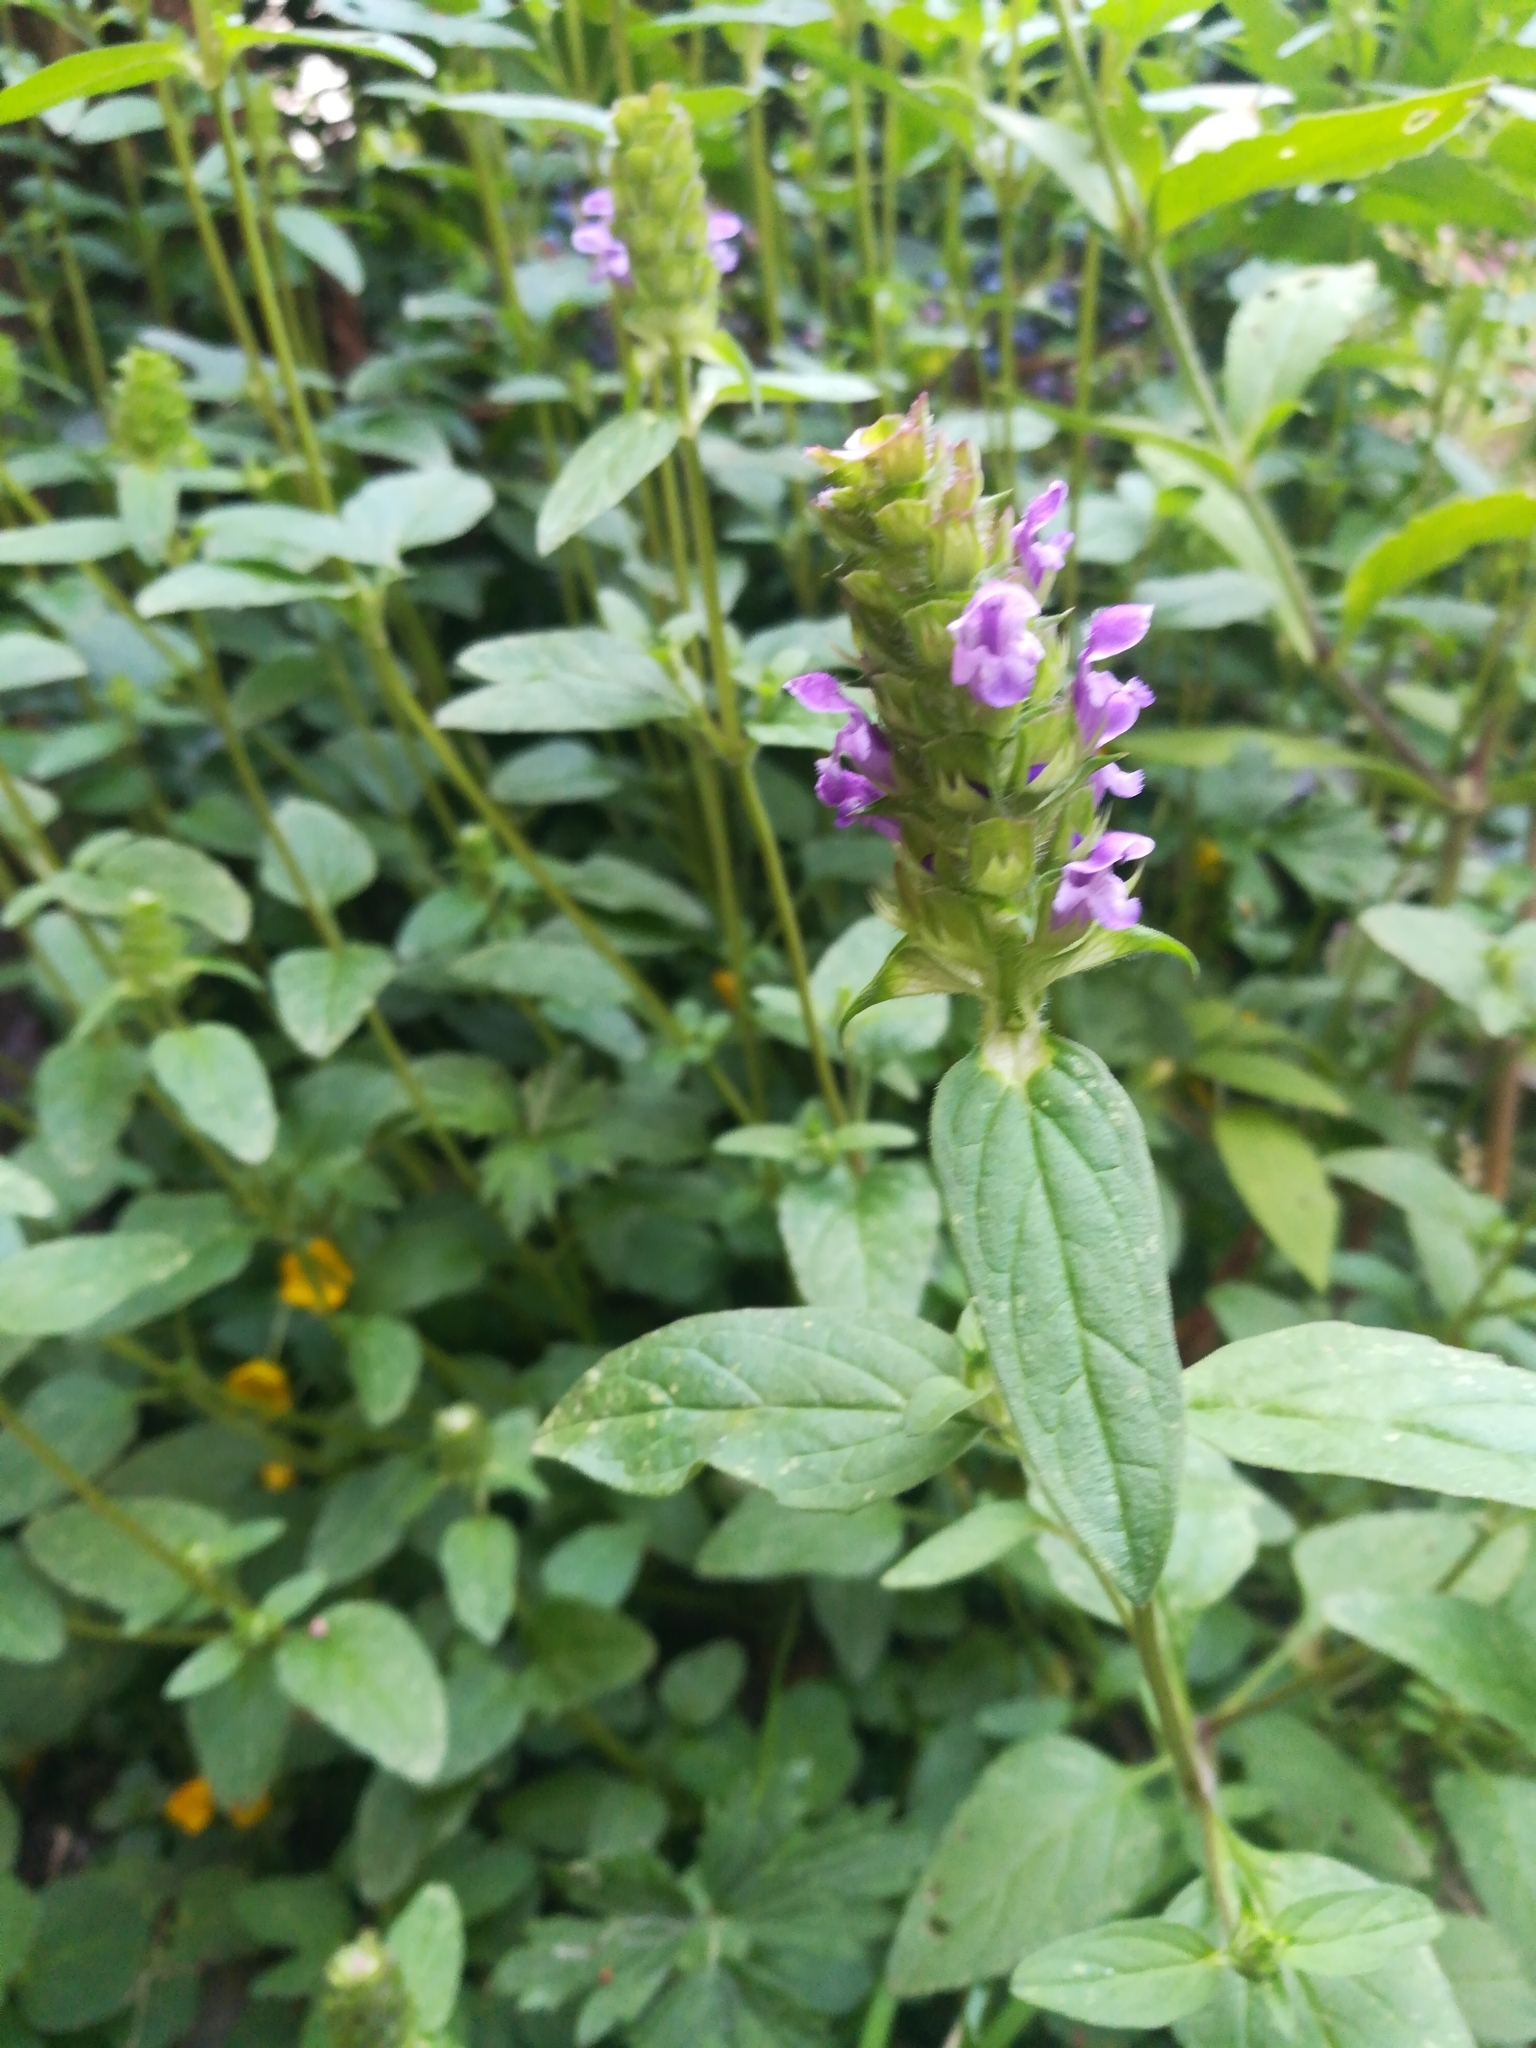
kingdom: Plantae
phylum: Tracheophyta
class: Magnoliopsida
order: Lamiales
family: Lamiaceae
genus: Prunella
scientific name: Prunella vulgaris
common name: Heal-all
